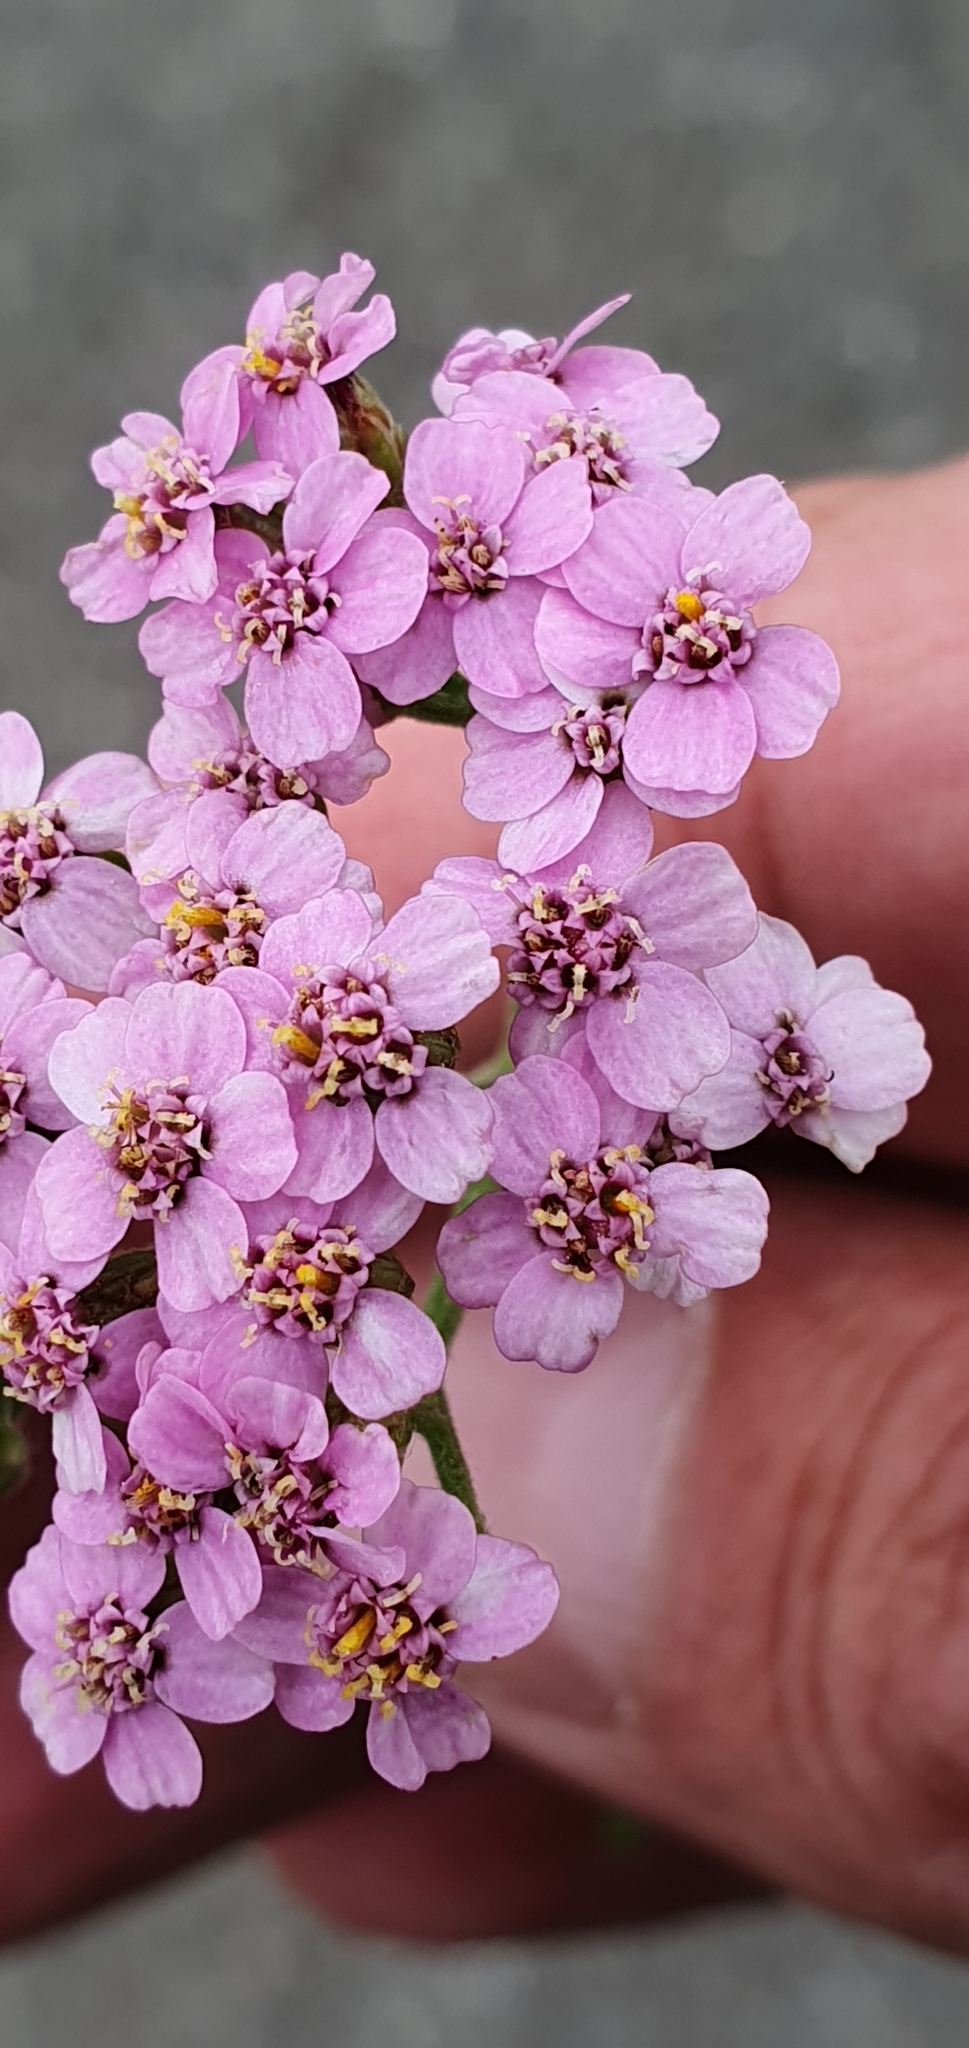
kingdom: Plantae
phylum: Tracheophyta
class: Magnoliopsida
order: Asterales
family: Asteraceae
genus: Achillea
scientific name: Achillea millefolium
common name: Yarrow
